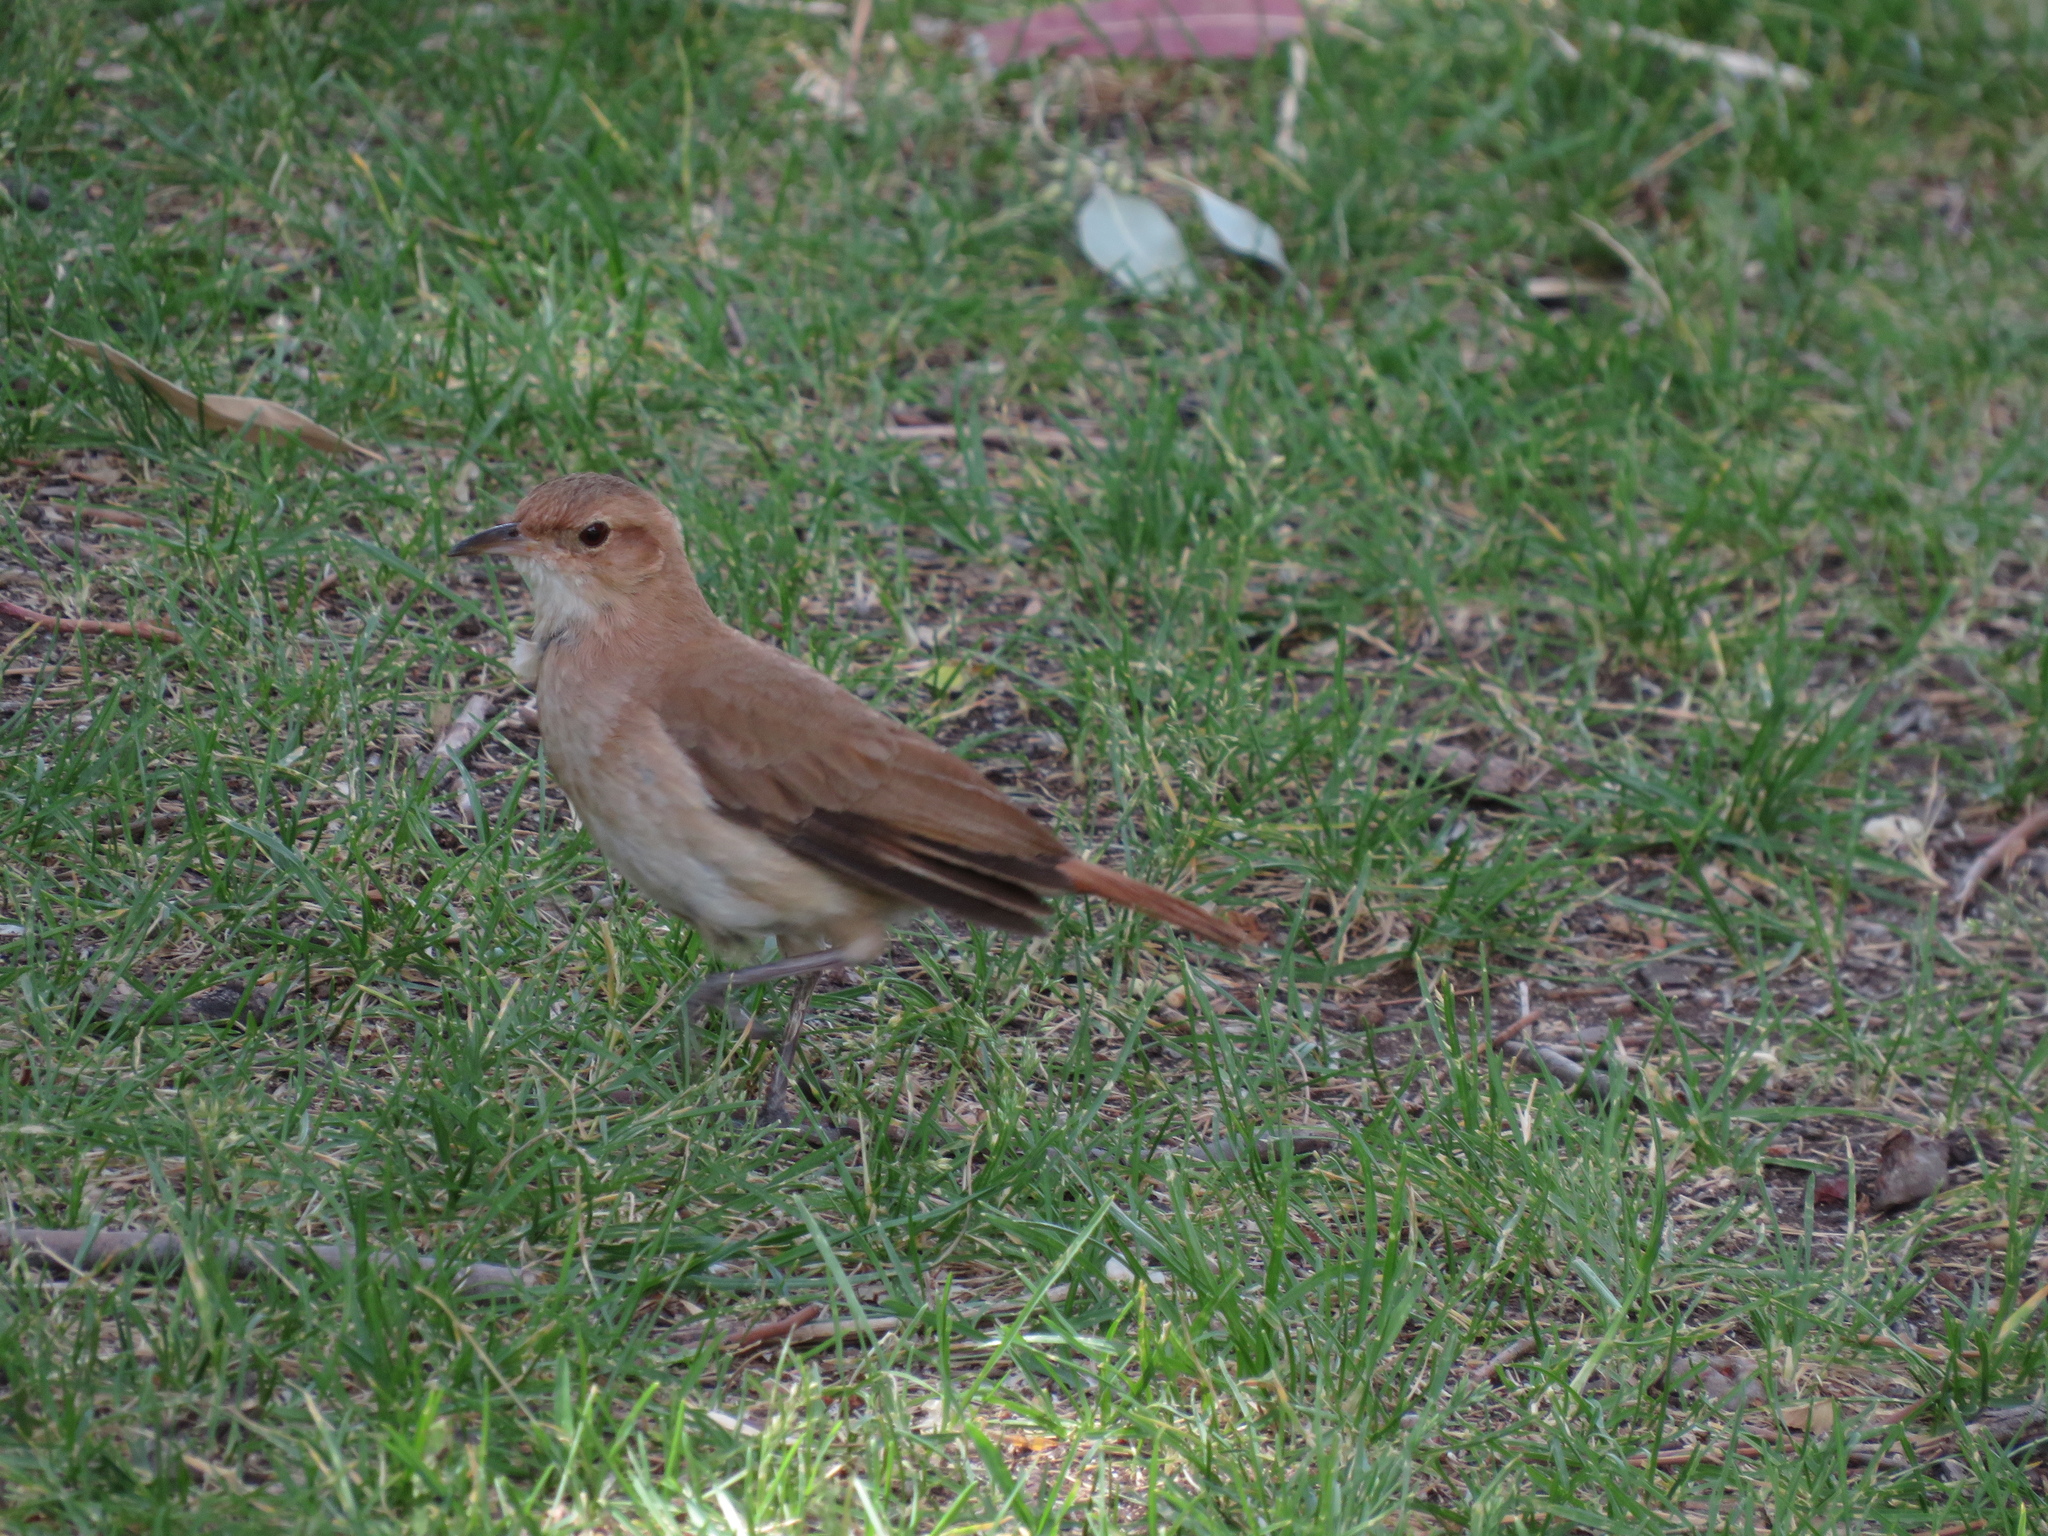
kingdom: Animalia
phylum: Chordata
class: Aves
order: Passeriformes
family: Furnariidae
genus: Furnarius
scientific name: Furnarius rufus
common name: Rufous hornero
